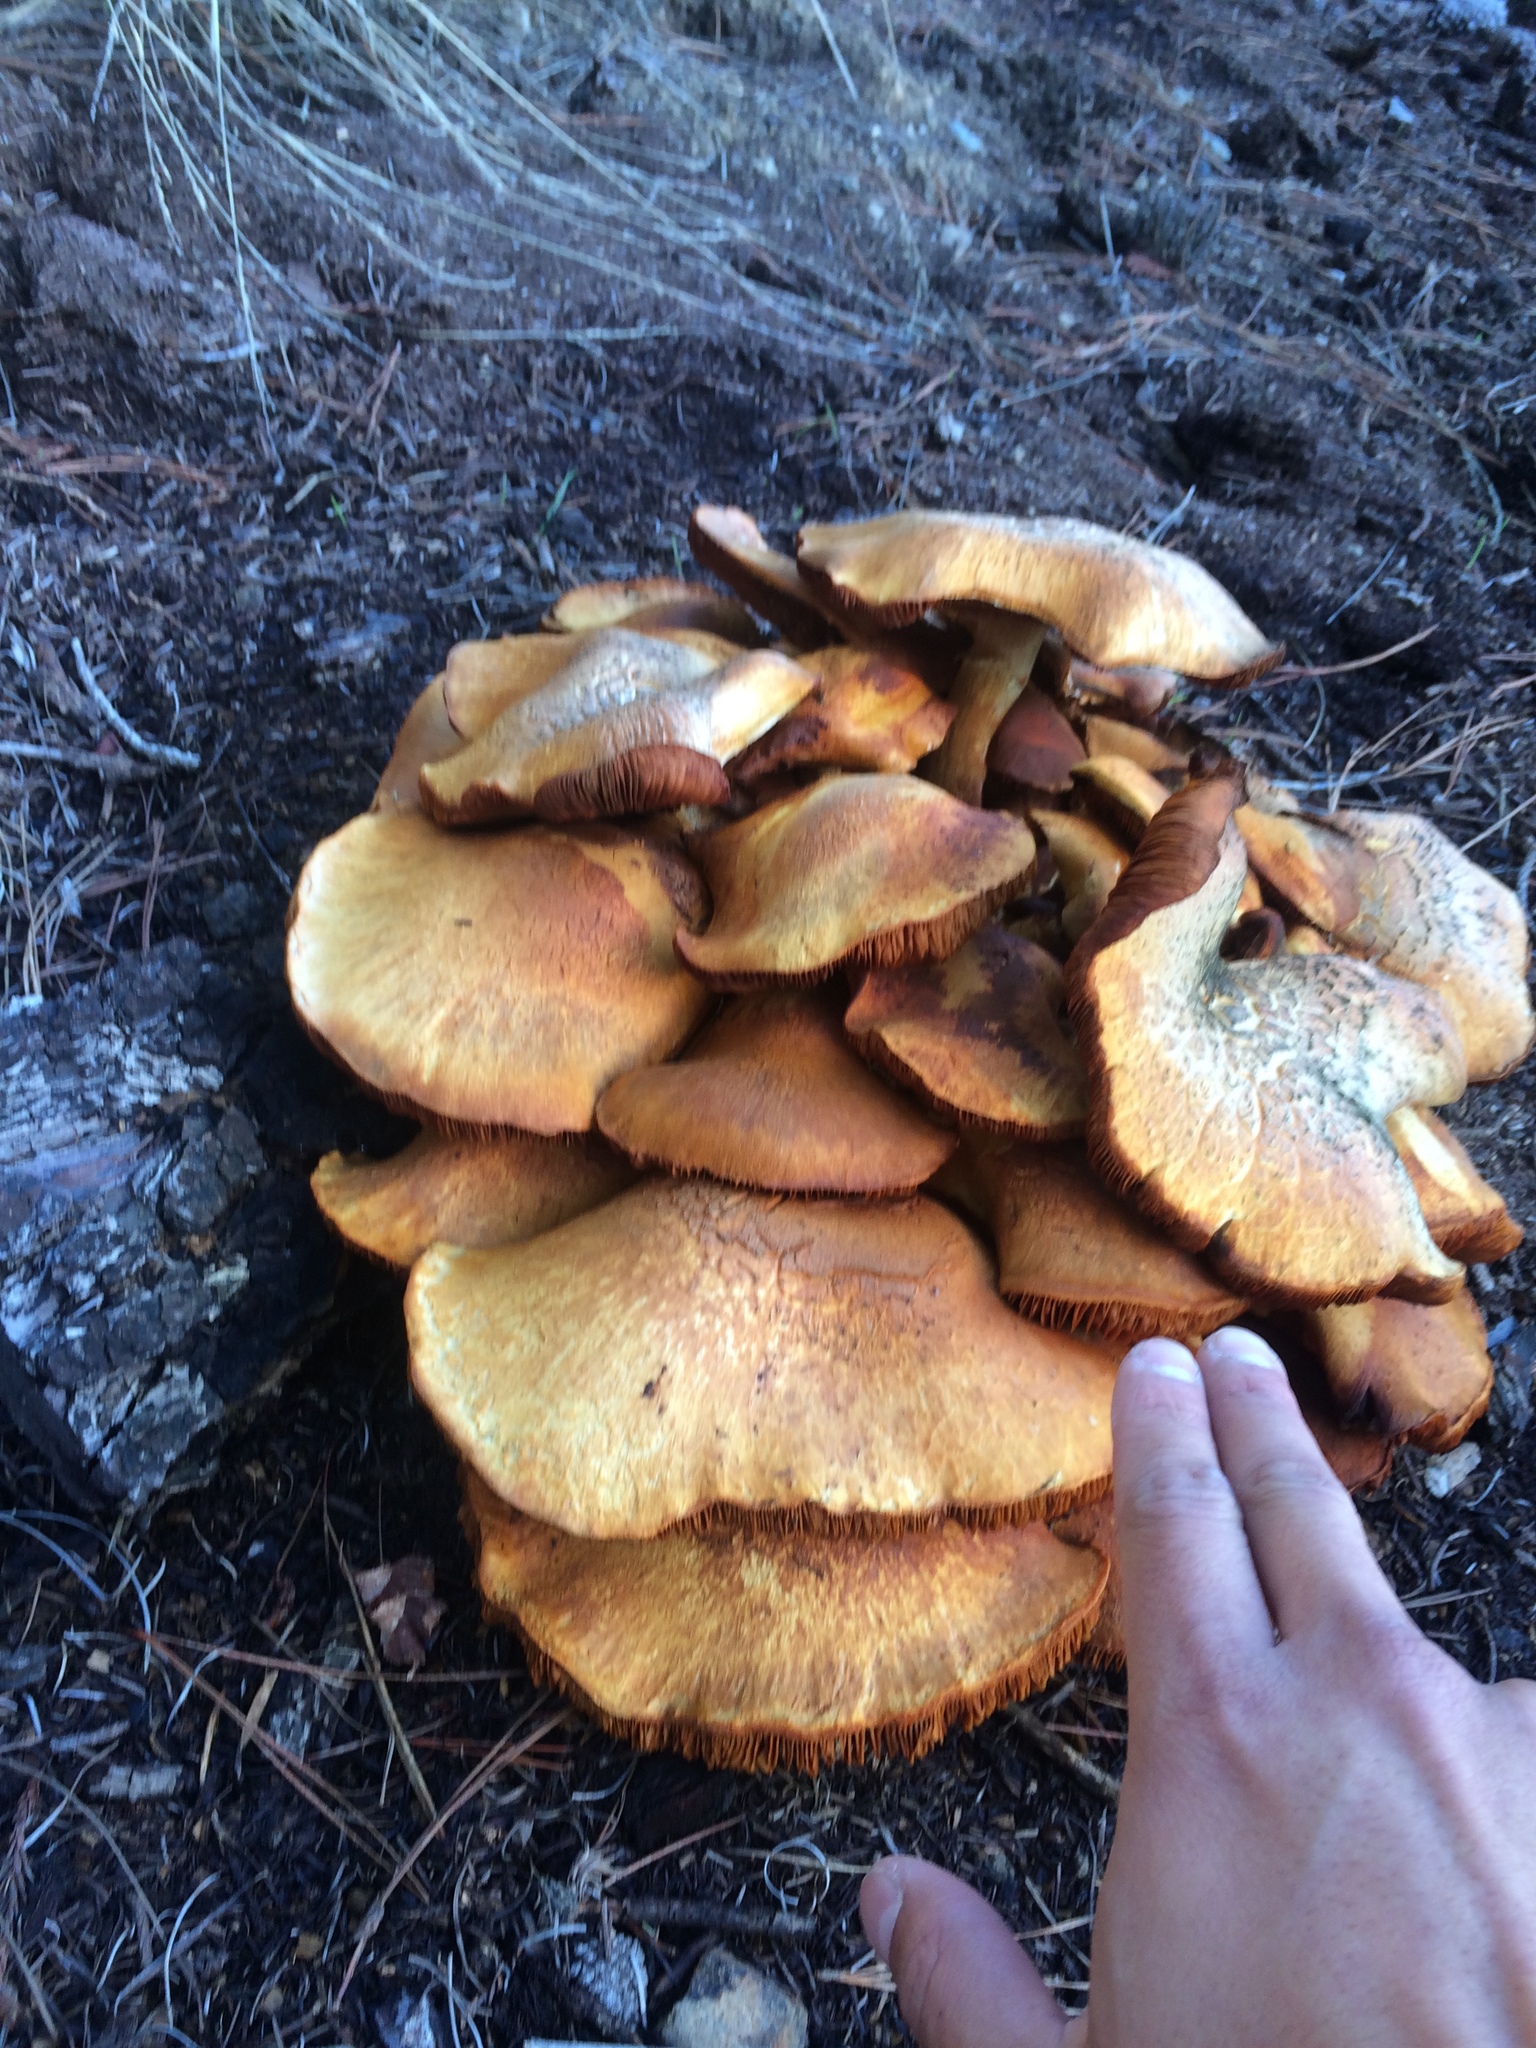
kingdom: Fungi
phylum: Basidiomycota
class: Agaricomycetes
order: Agaricales
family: Hymenogastraceae
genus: Gymnopilus
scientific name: Gymnopilus ventricosus
